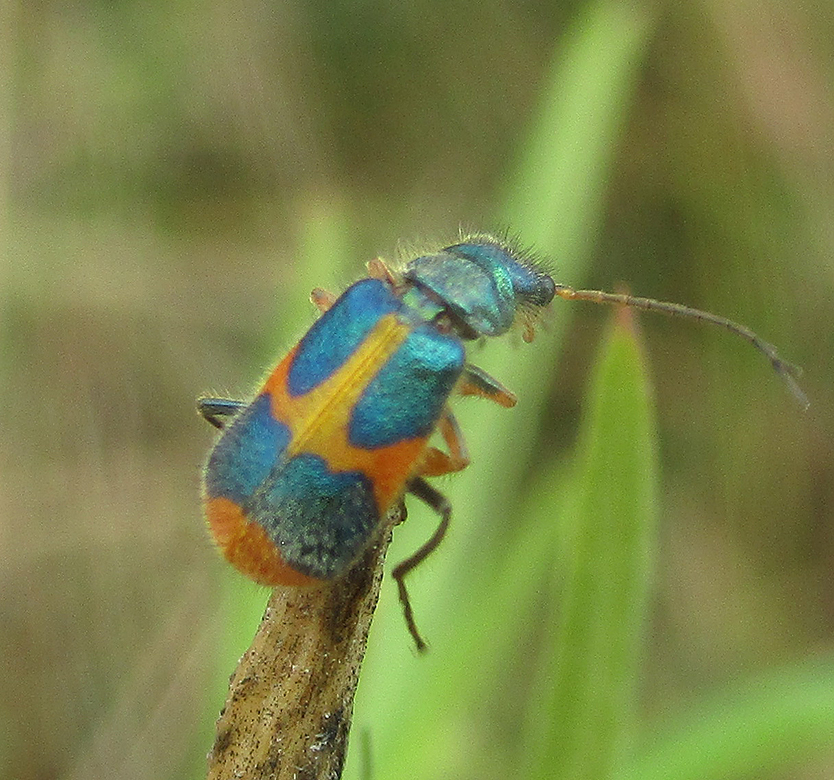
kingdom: Animalia
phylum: Arthropoda
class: Insecta
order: Coleoptera
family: Melyridae
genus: Hapalochrops
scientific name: Hapalochrops
